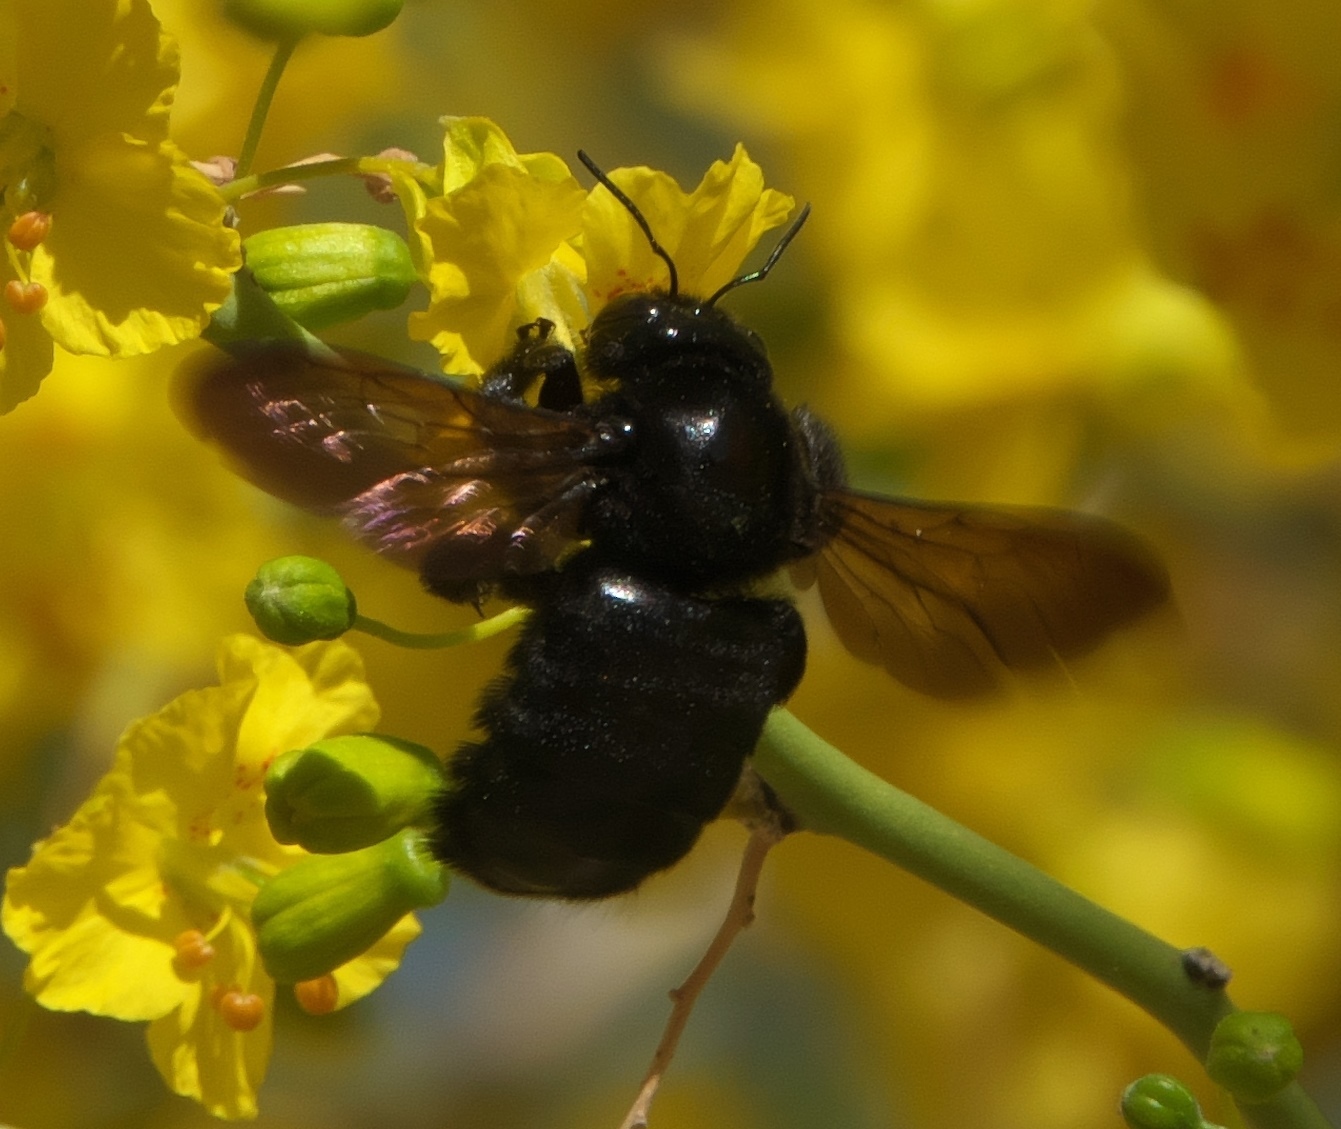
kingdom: Animalia
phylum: Arthropoda
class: Insecta
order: Hymenoptera
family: Apidae
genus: Xylocopa
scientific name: Xylocopa sonorina
